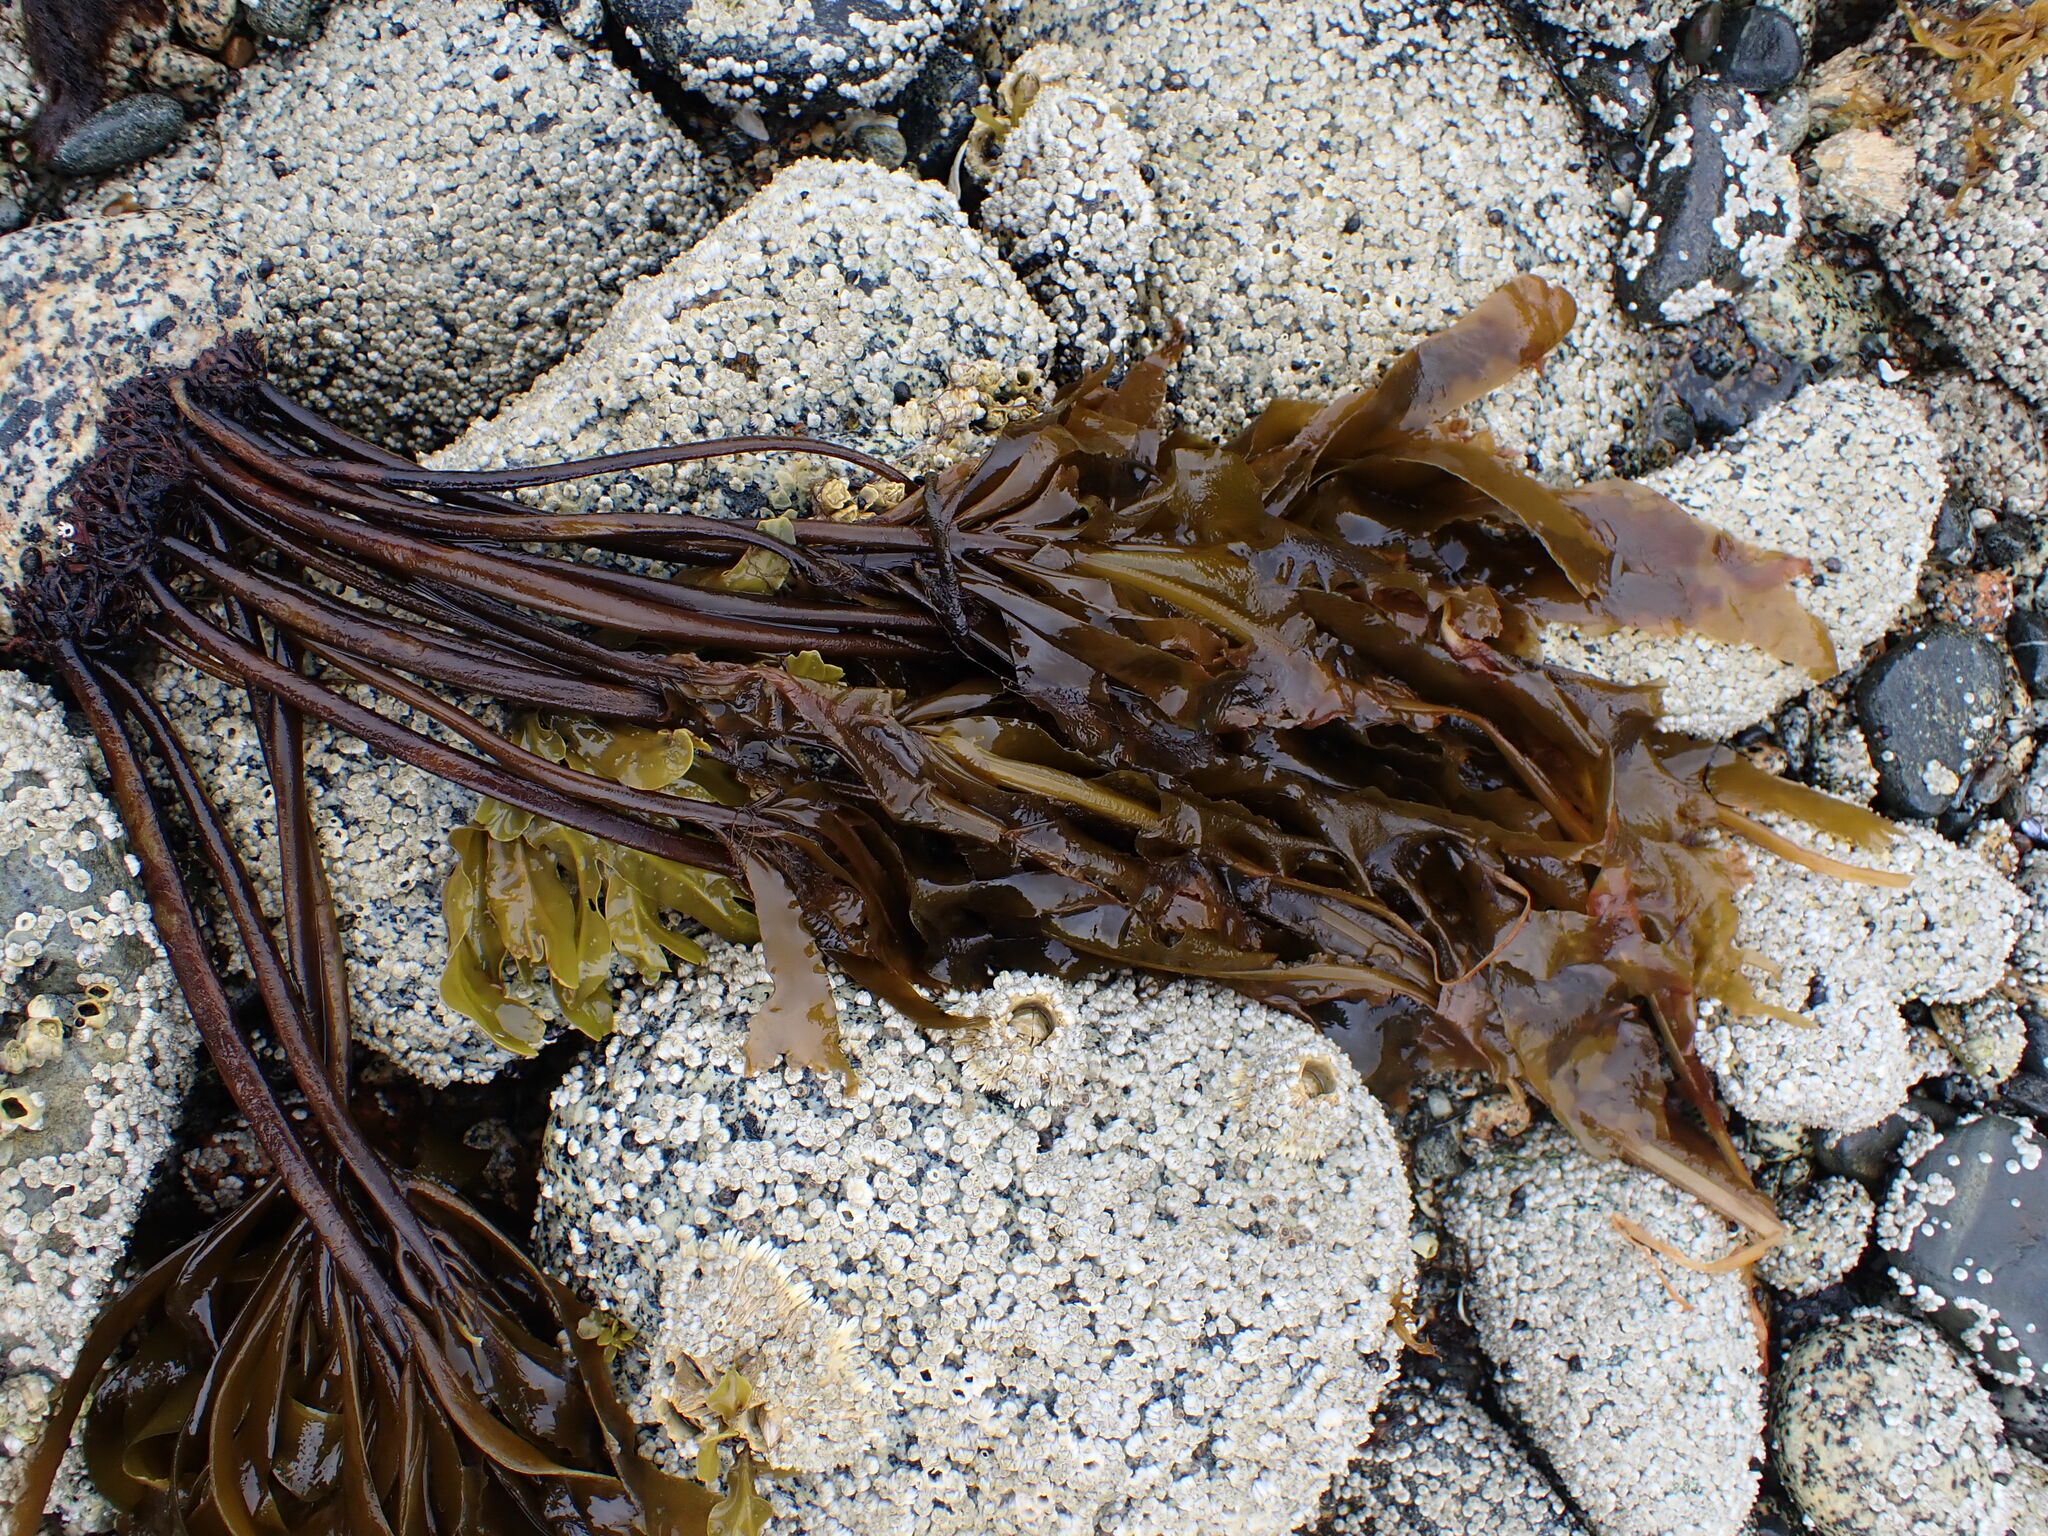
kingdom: Chromista
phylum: Ochrophyta
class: Phaeophyceae
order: Laminariales
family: Alariaceae
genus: Alaria
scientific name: Alaria marginata
